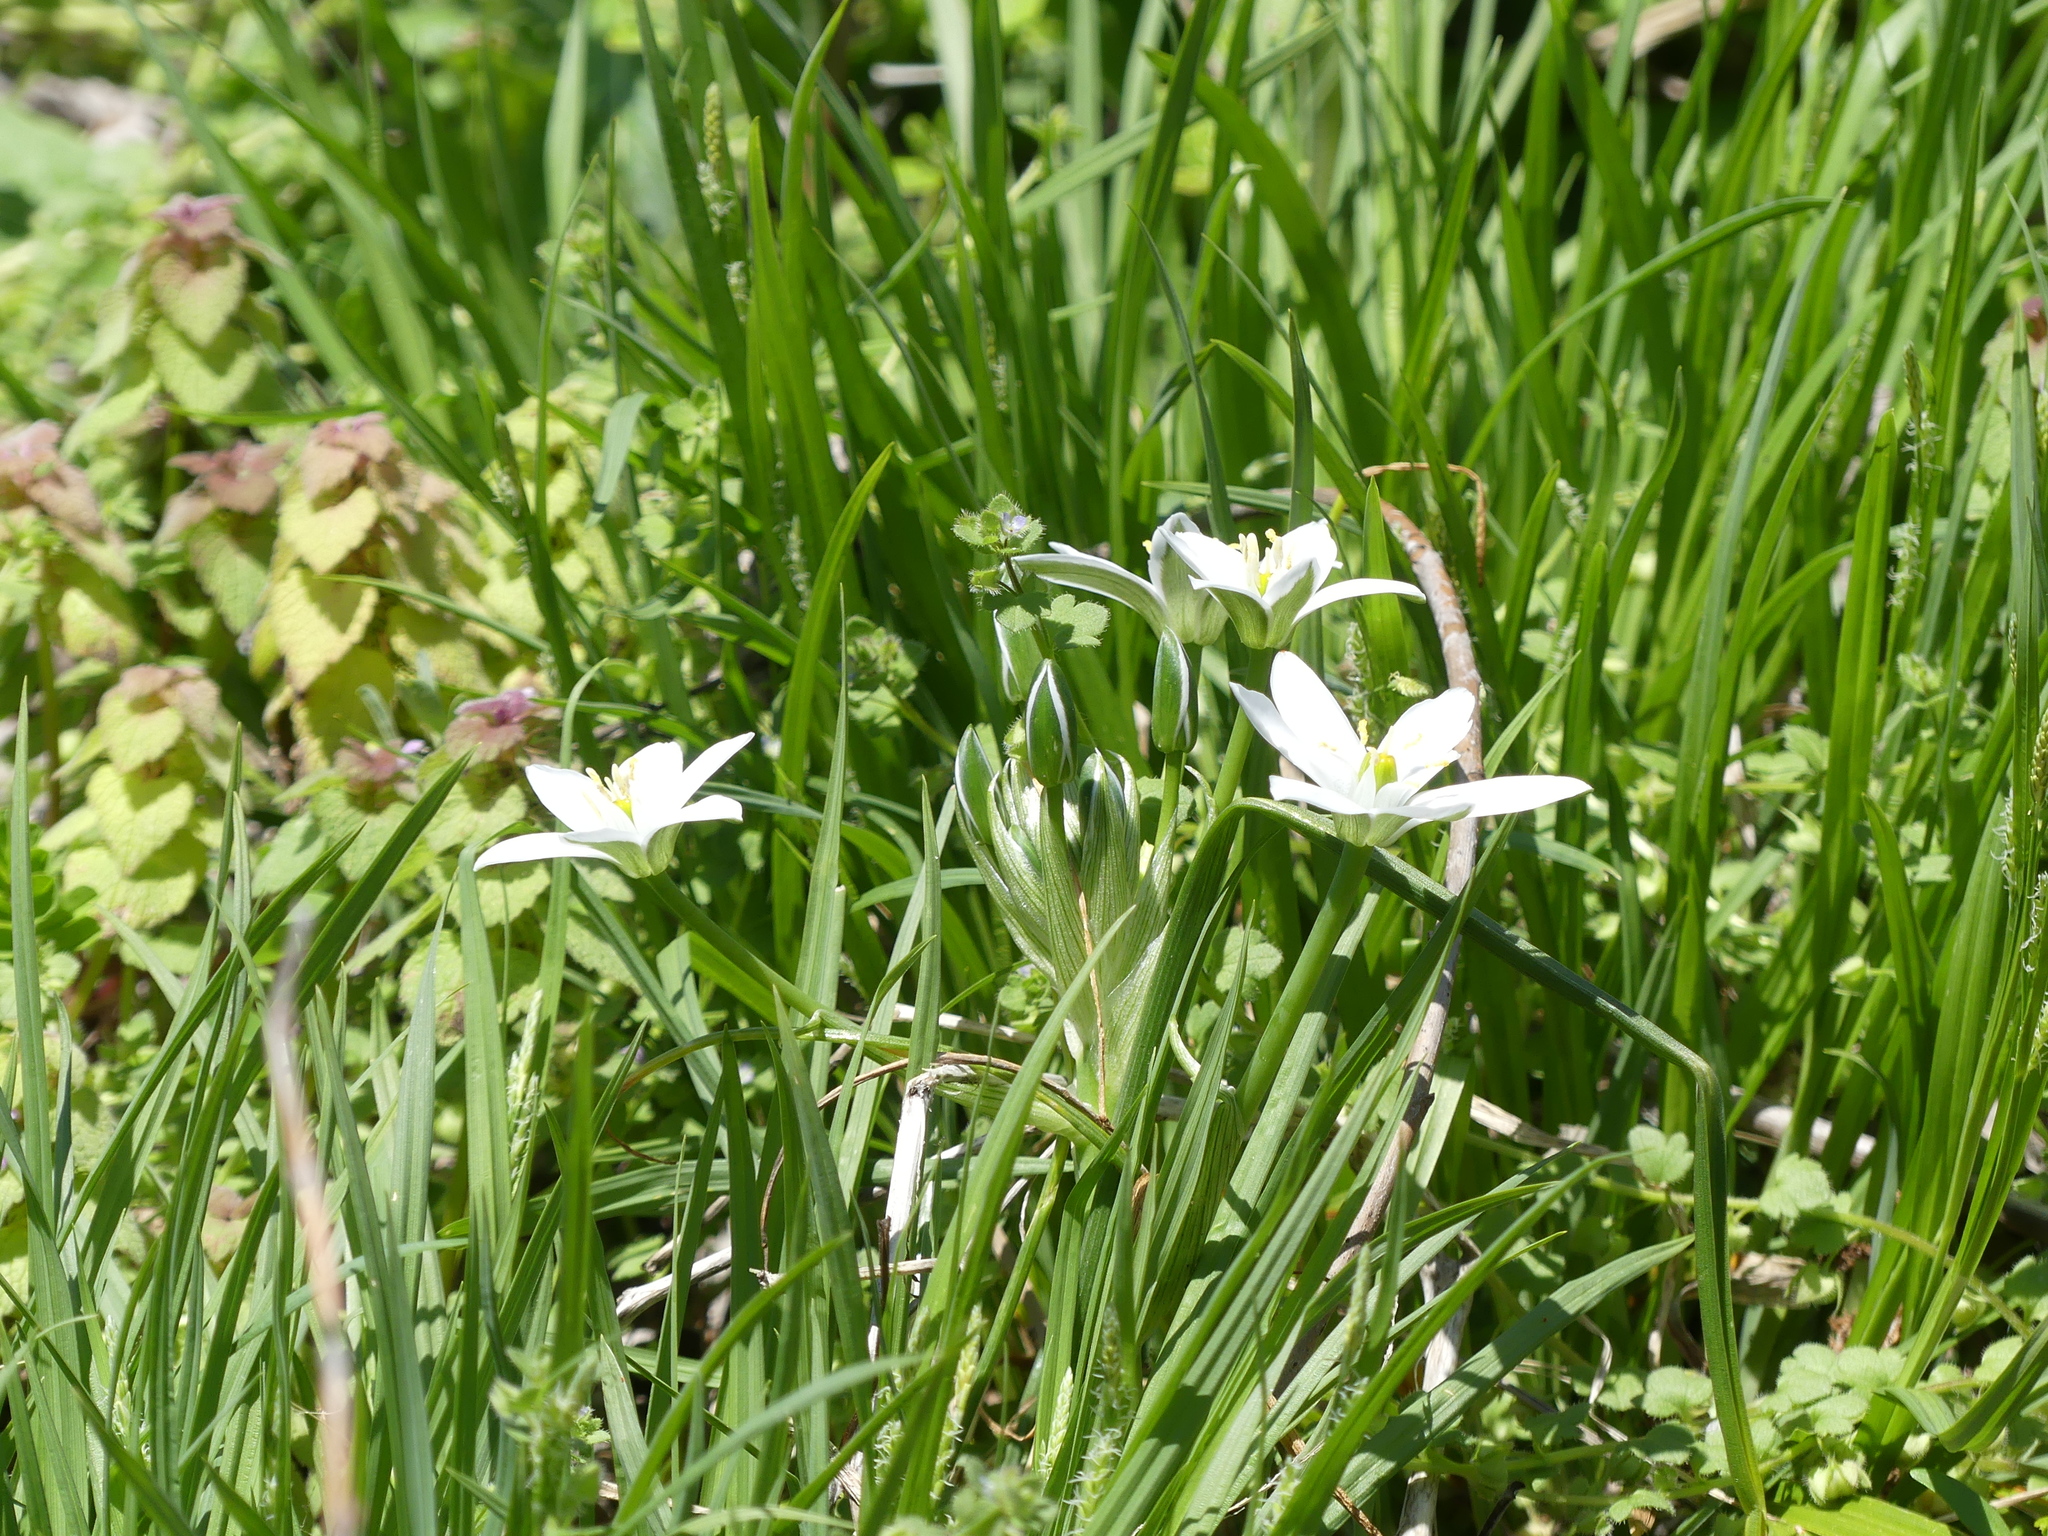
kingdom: Plantae
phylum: Tracheophyta
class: Liliopsida
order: Asparagales
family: Asparagaceae
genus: Ornithogalum
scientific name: Ornithogalum umbellatum
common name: Garden star-of-bethlehem
